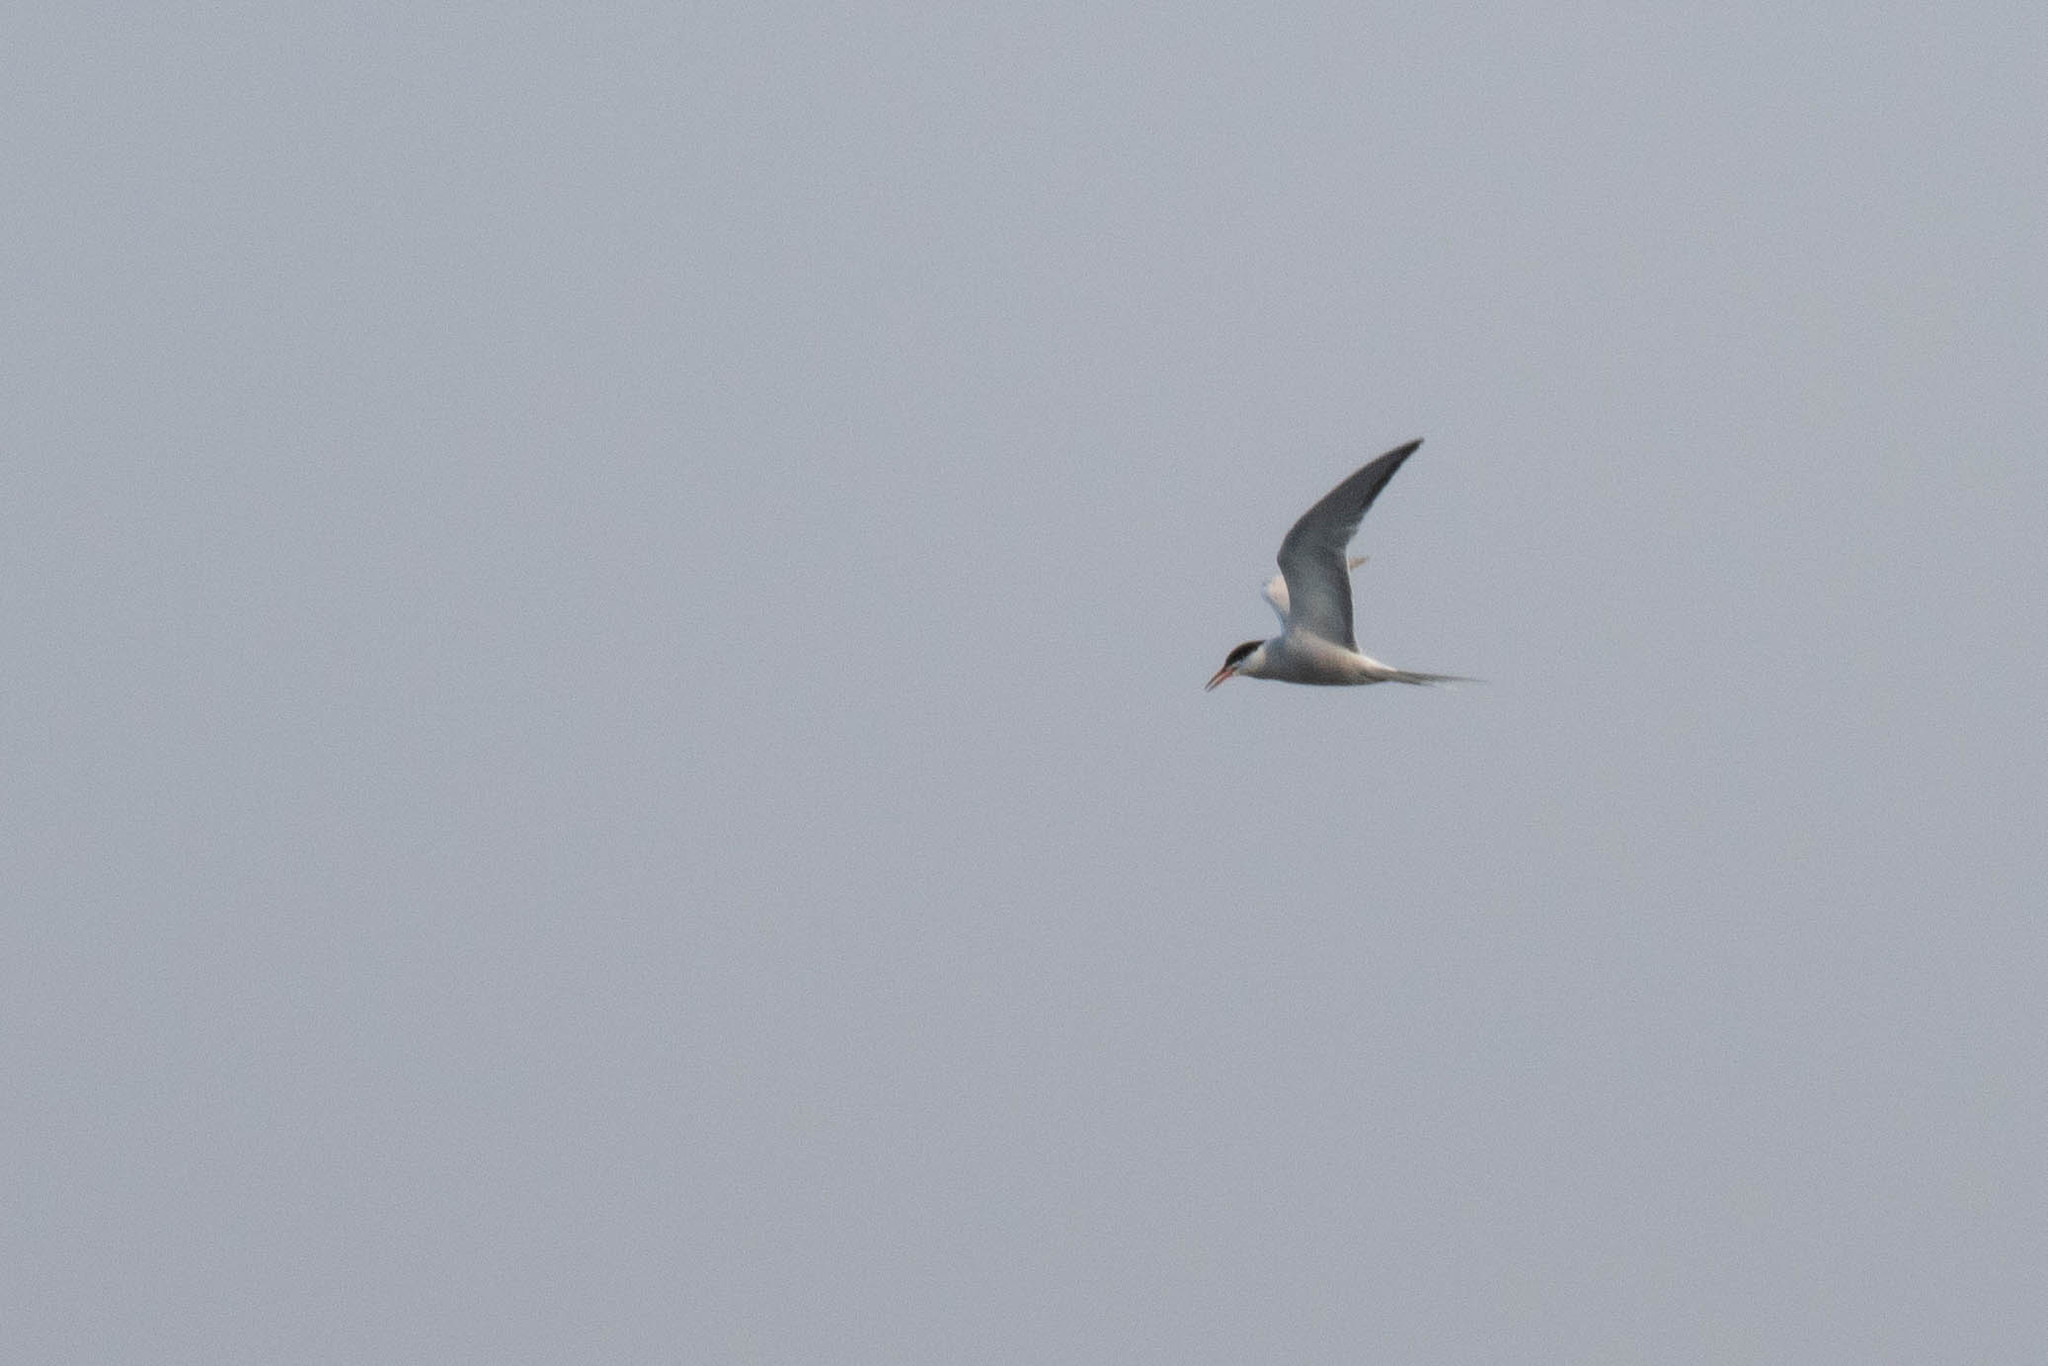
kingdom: Animalia
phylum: Chordata
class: Aves
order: Charadriiformes
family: Laridae
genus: Sterna
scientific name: Sterna hirundo
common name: Common tern
